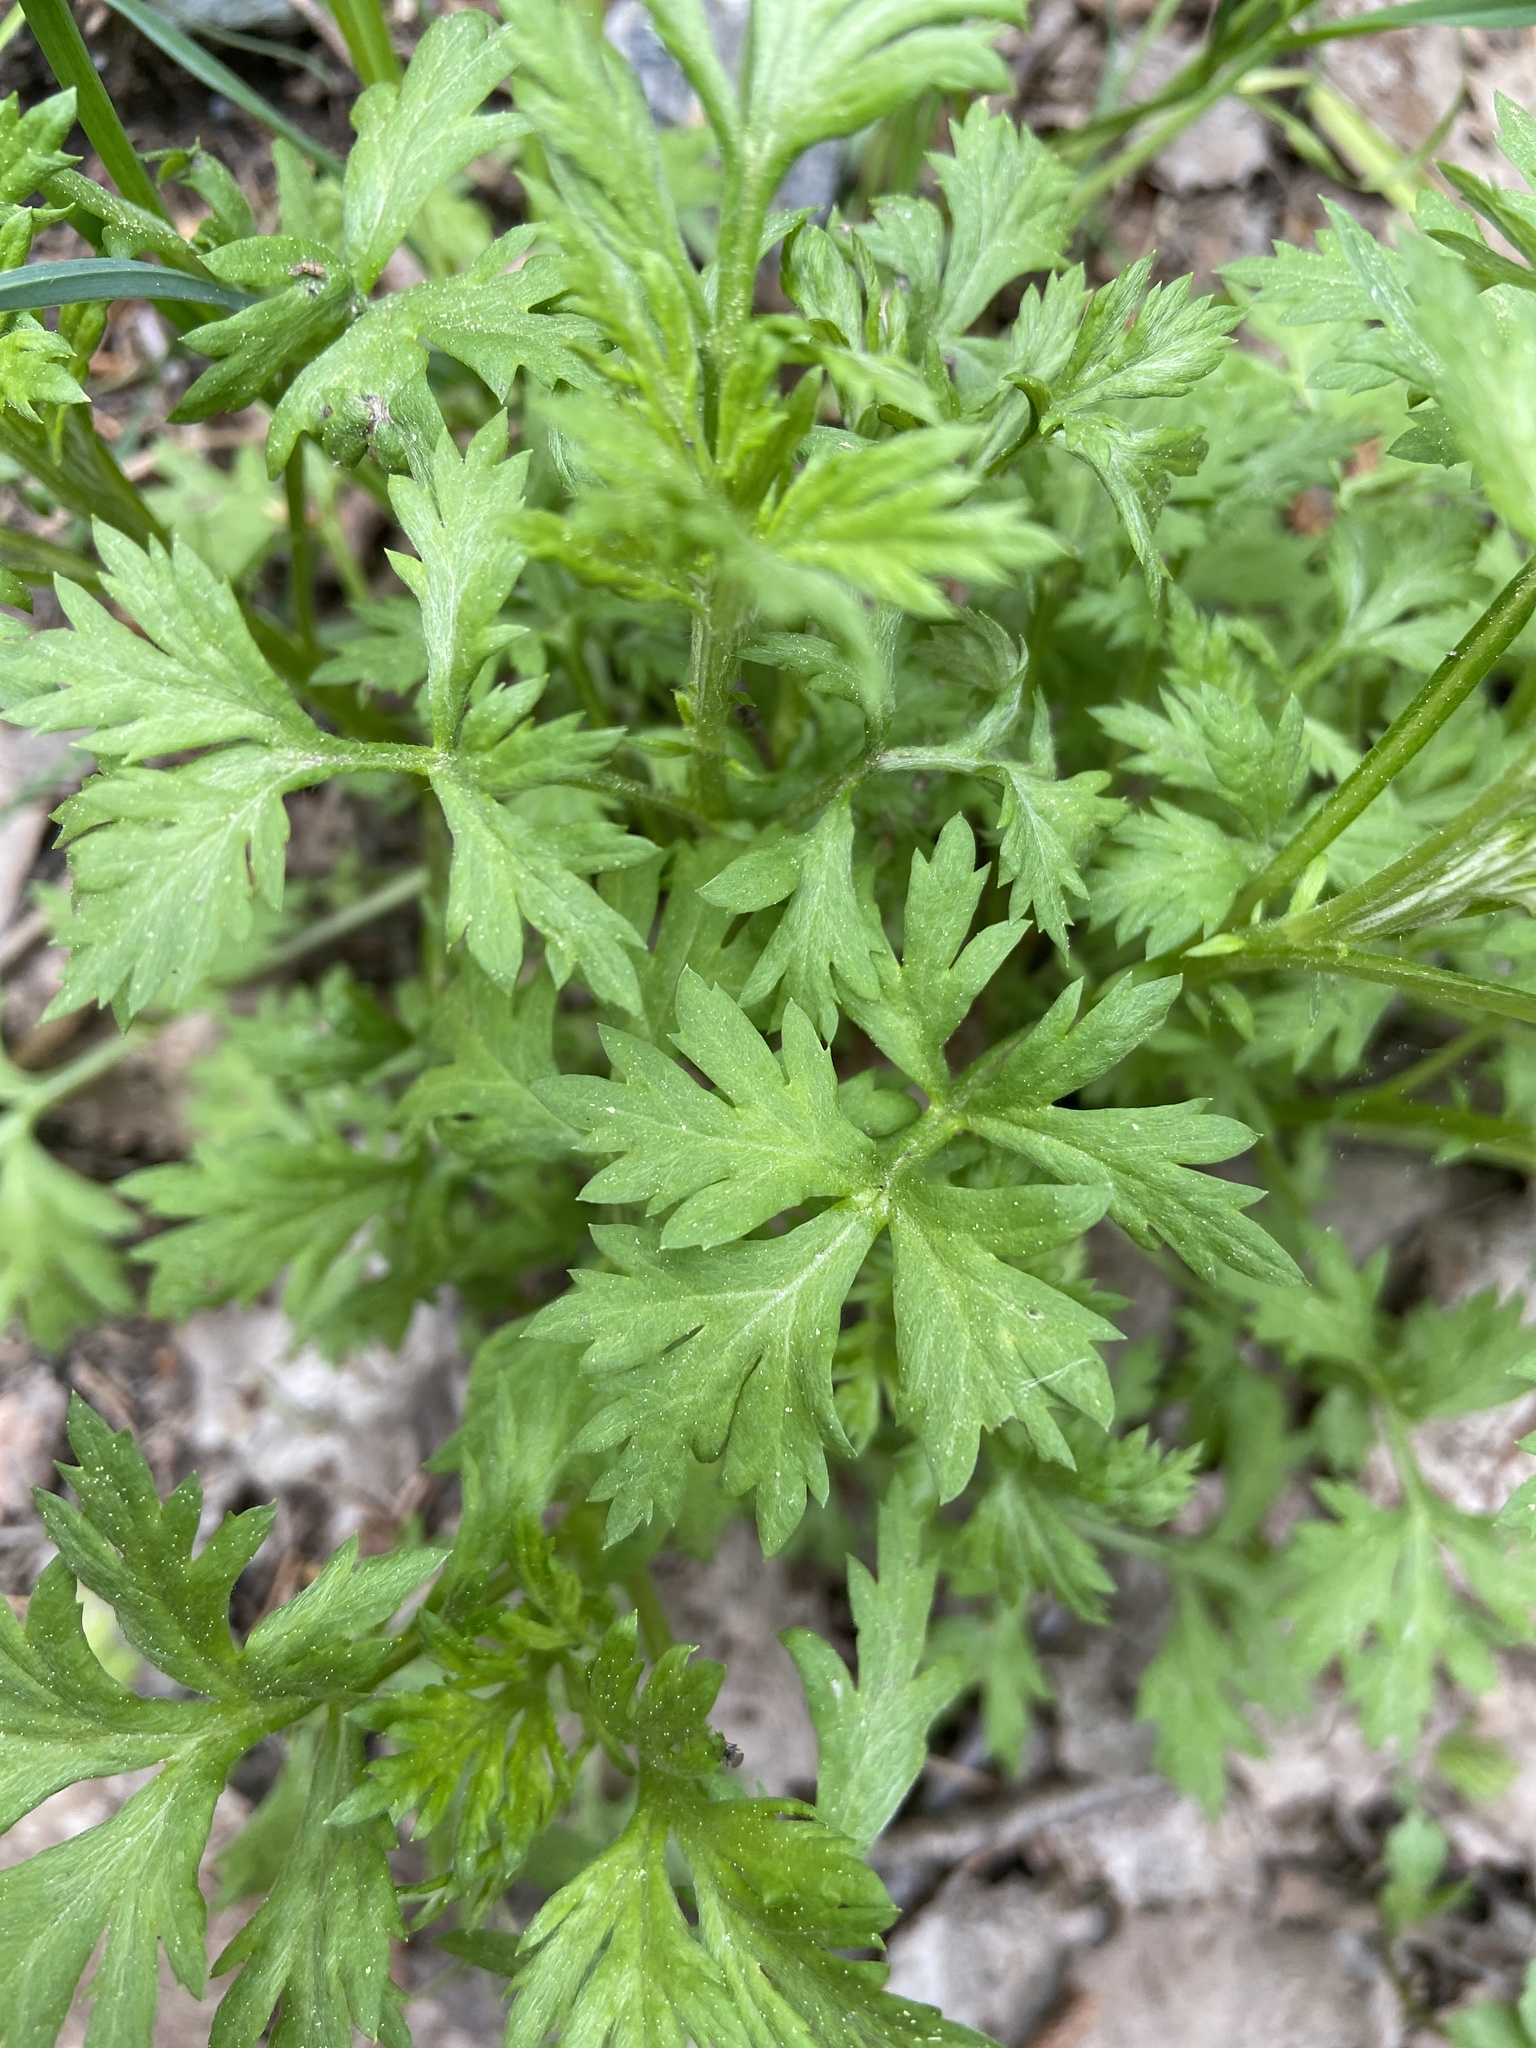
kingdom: Plantae
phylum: Tracheophyta
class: Magnoliopsida
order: Asterales
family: Asteraceae
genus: Artemisia
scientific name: Artemisia vulgaris
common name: Mugwort
